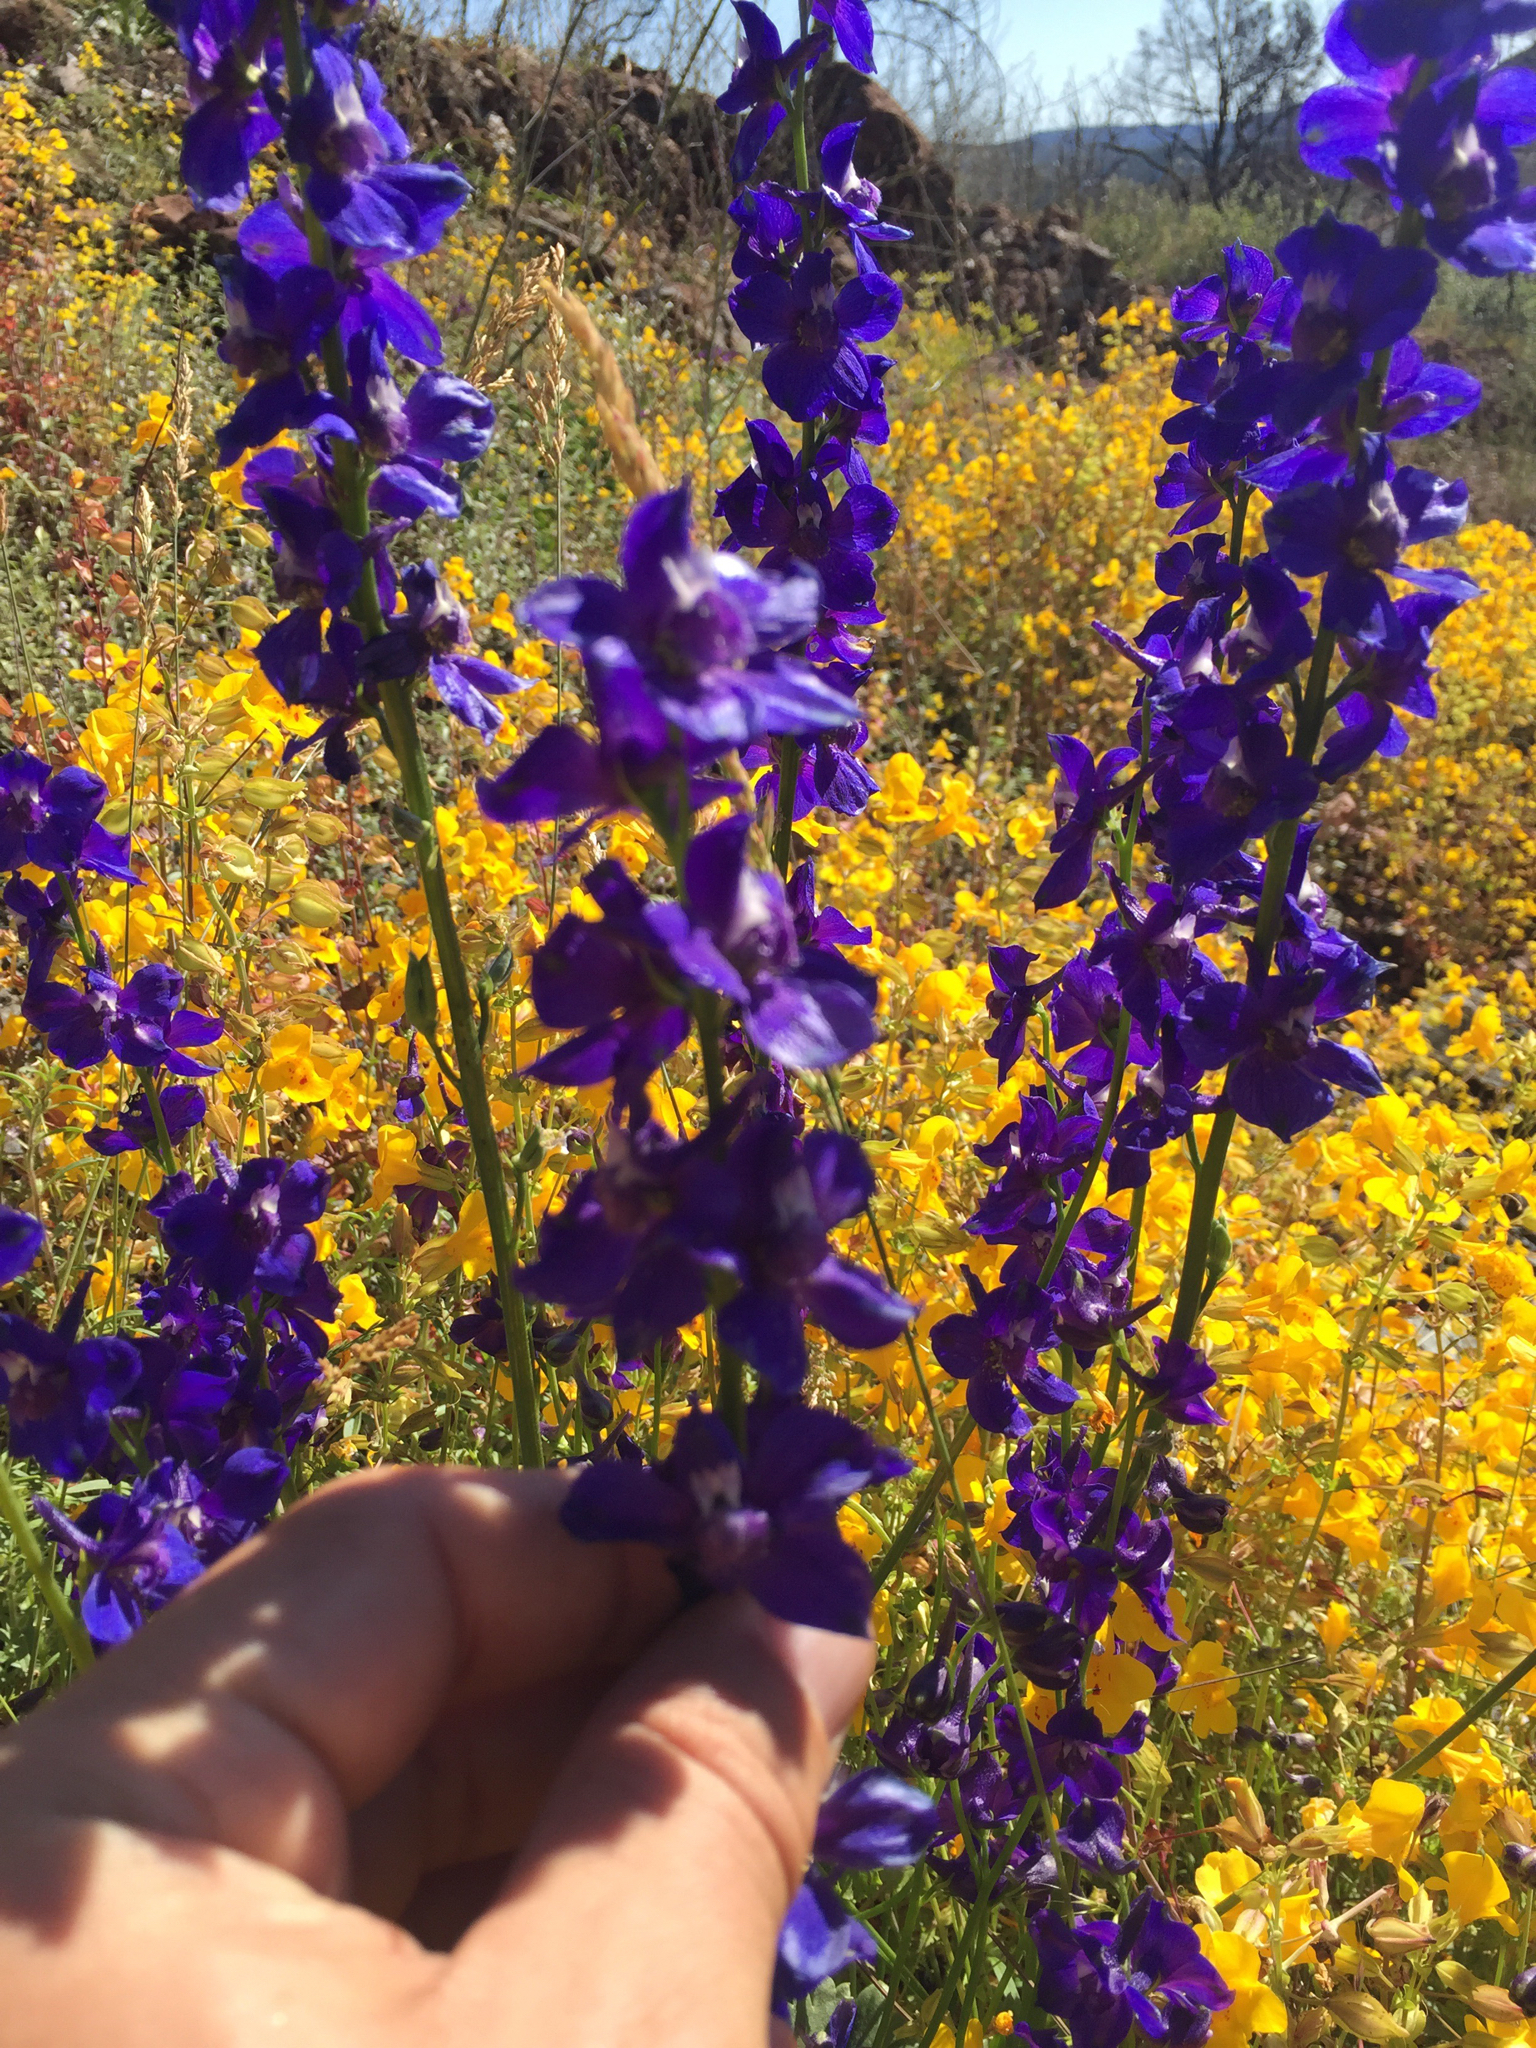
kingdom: Plantae
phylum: Tracheophyta
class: Magnoliopsida
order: Ranunculales
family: Ranunculaceae
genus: Delphinium
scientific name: Delphinium uliginosum
